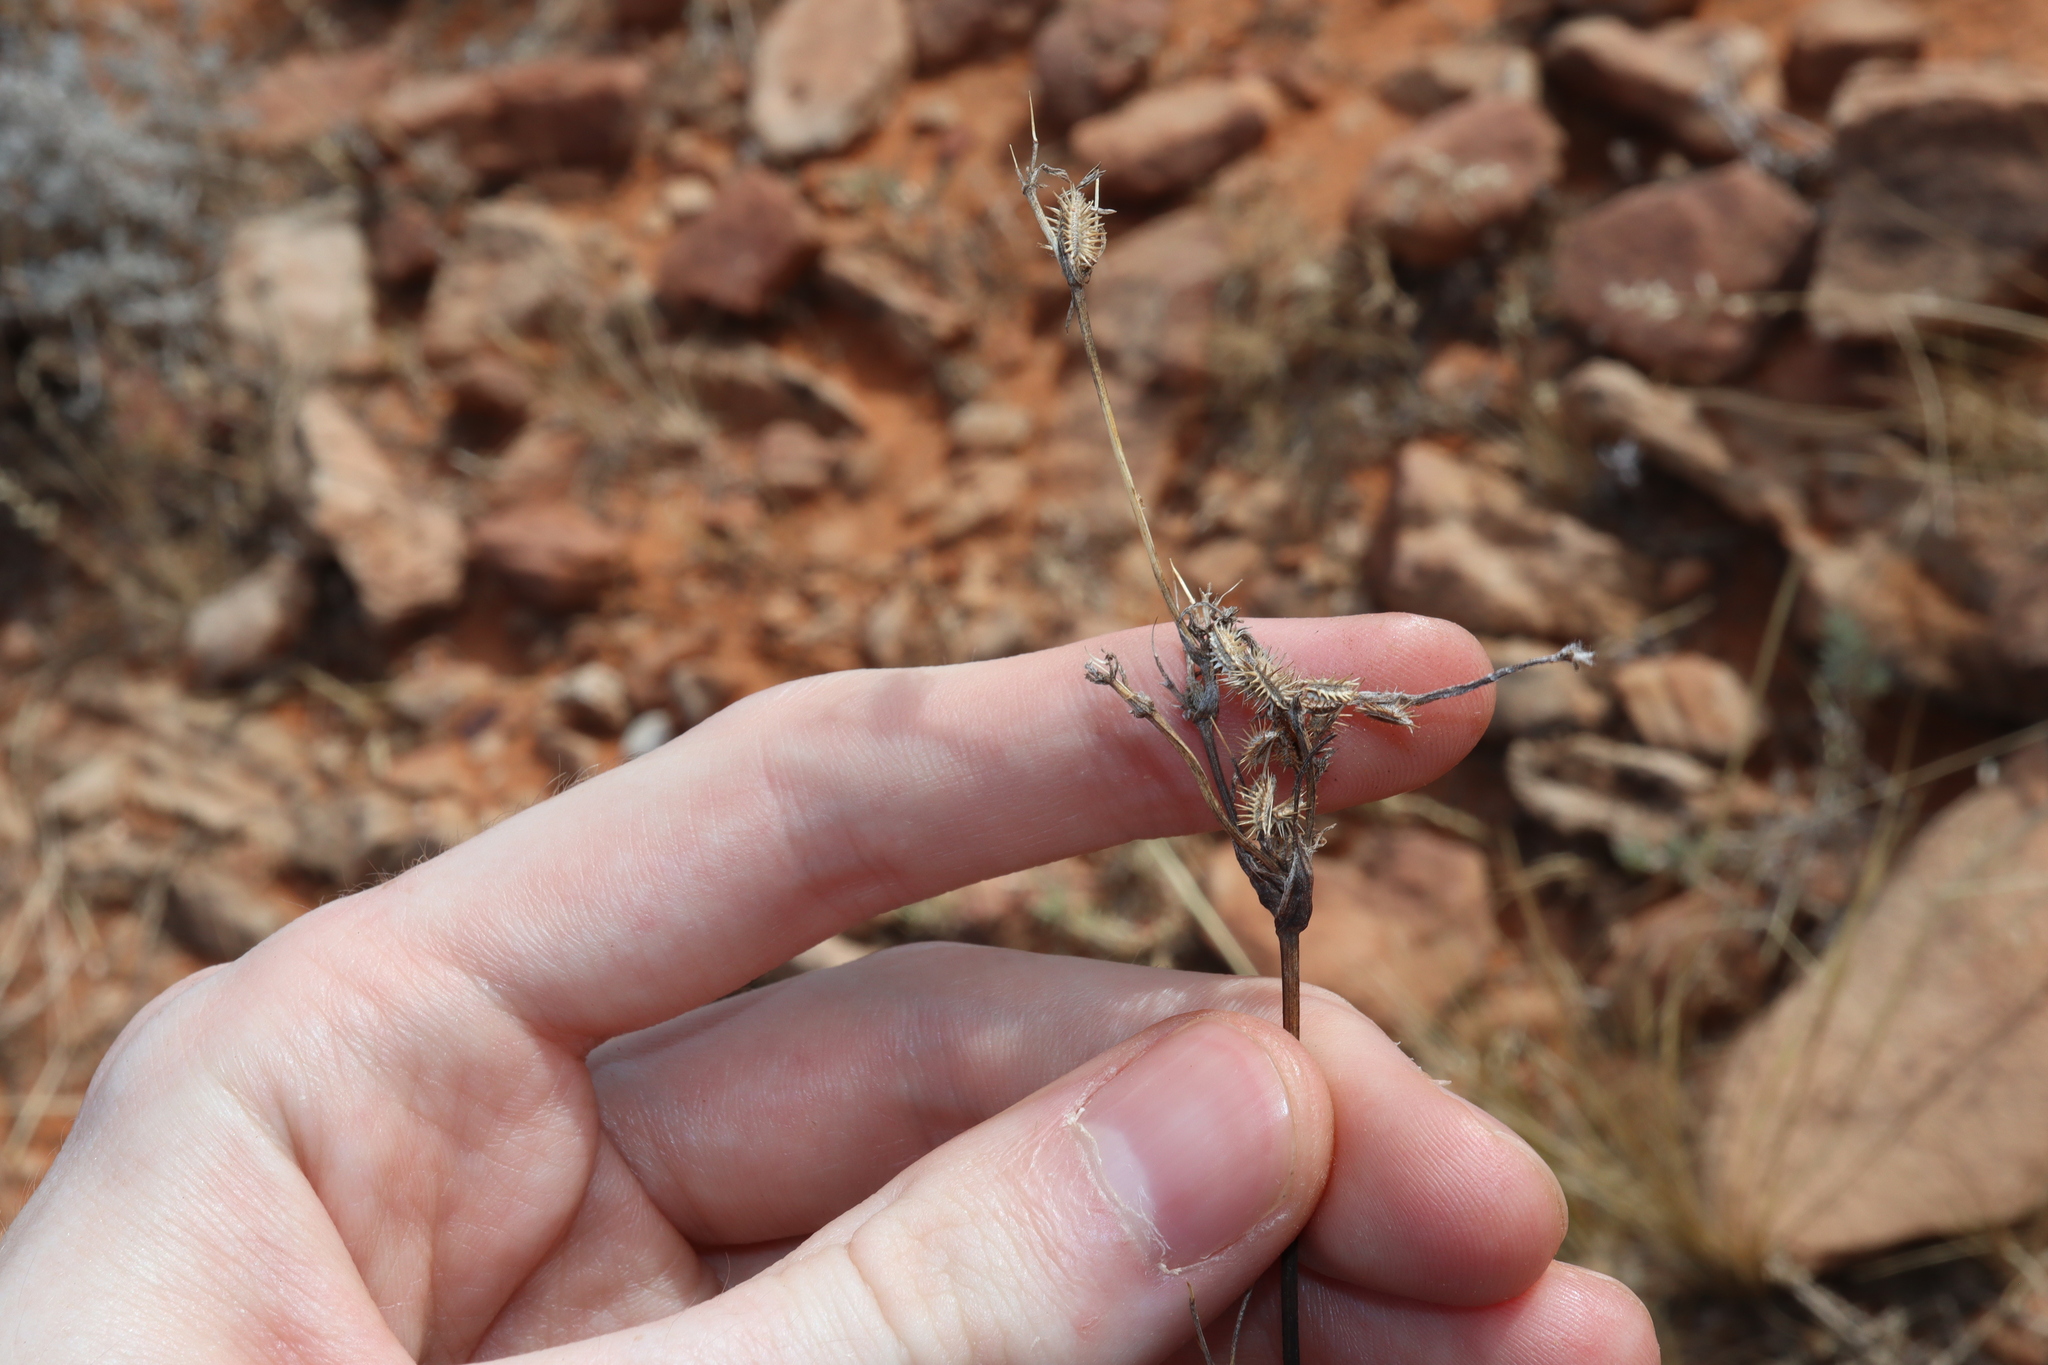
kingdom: Plantae
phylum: Tracheophyta
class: Magnoliopsida
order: Apiales
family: Apiaceae
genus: Daucus
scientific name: Daucus glochidiatus
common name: Australian carrot
